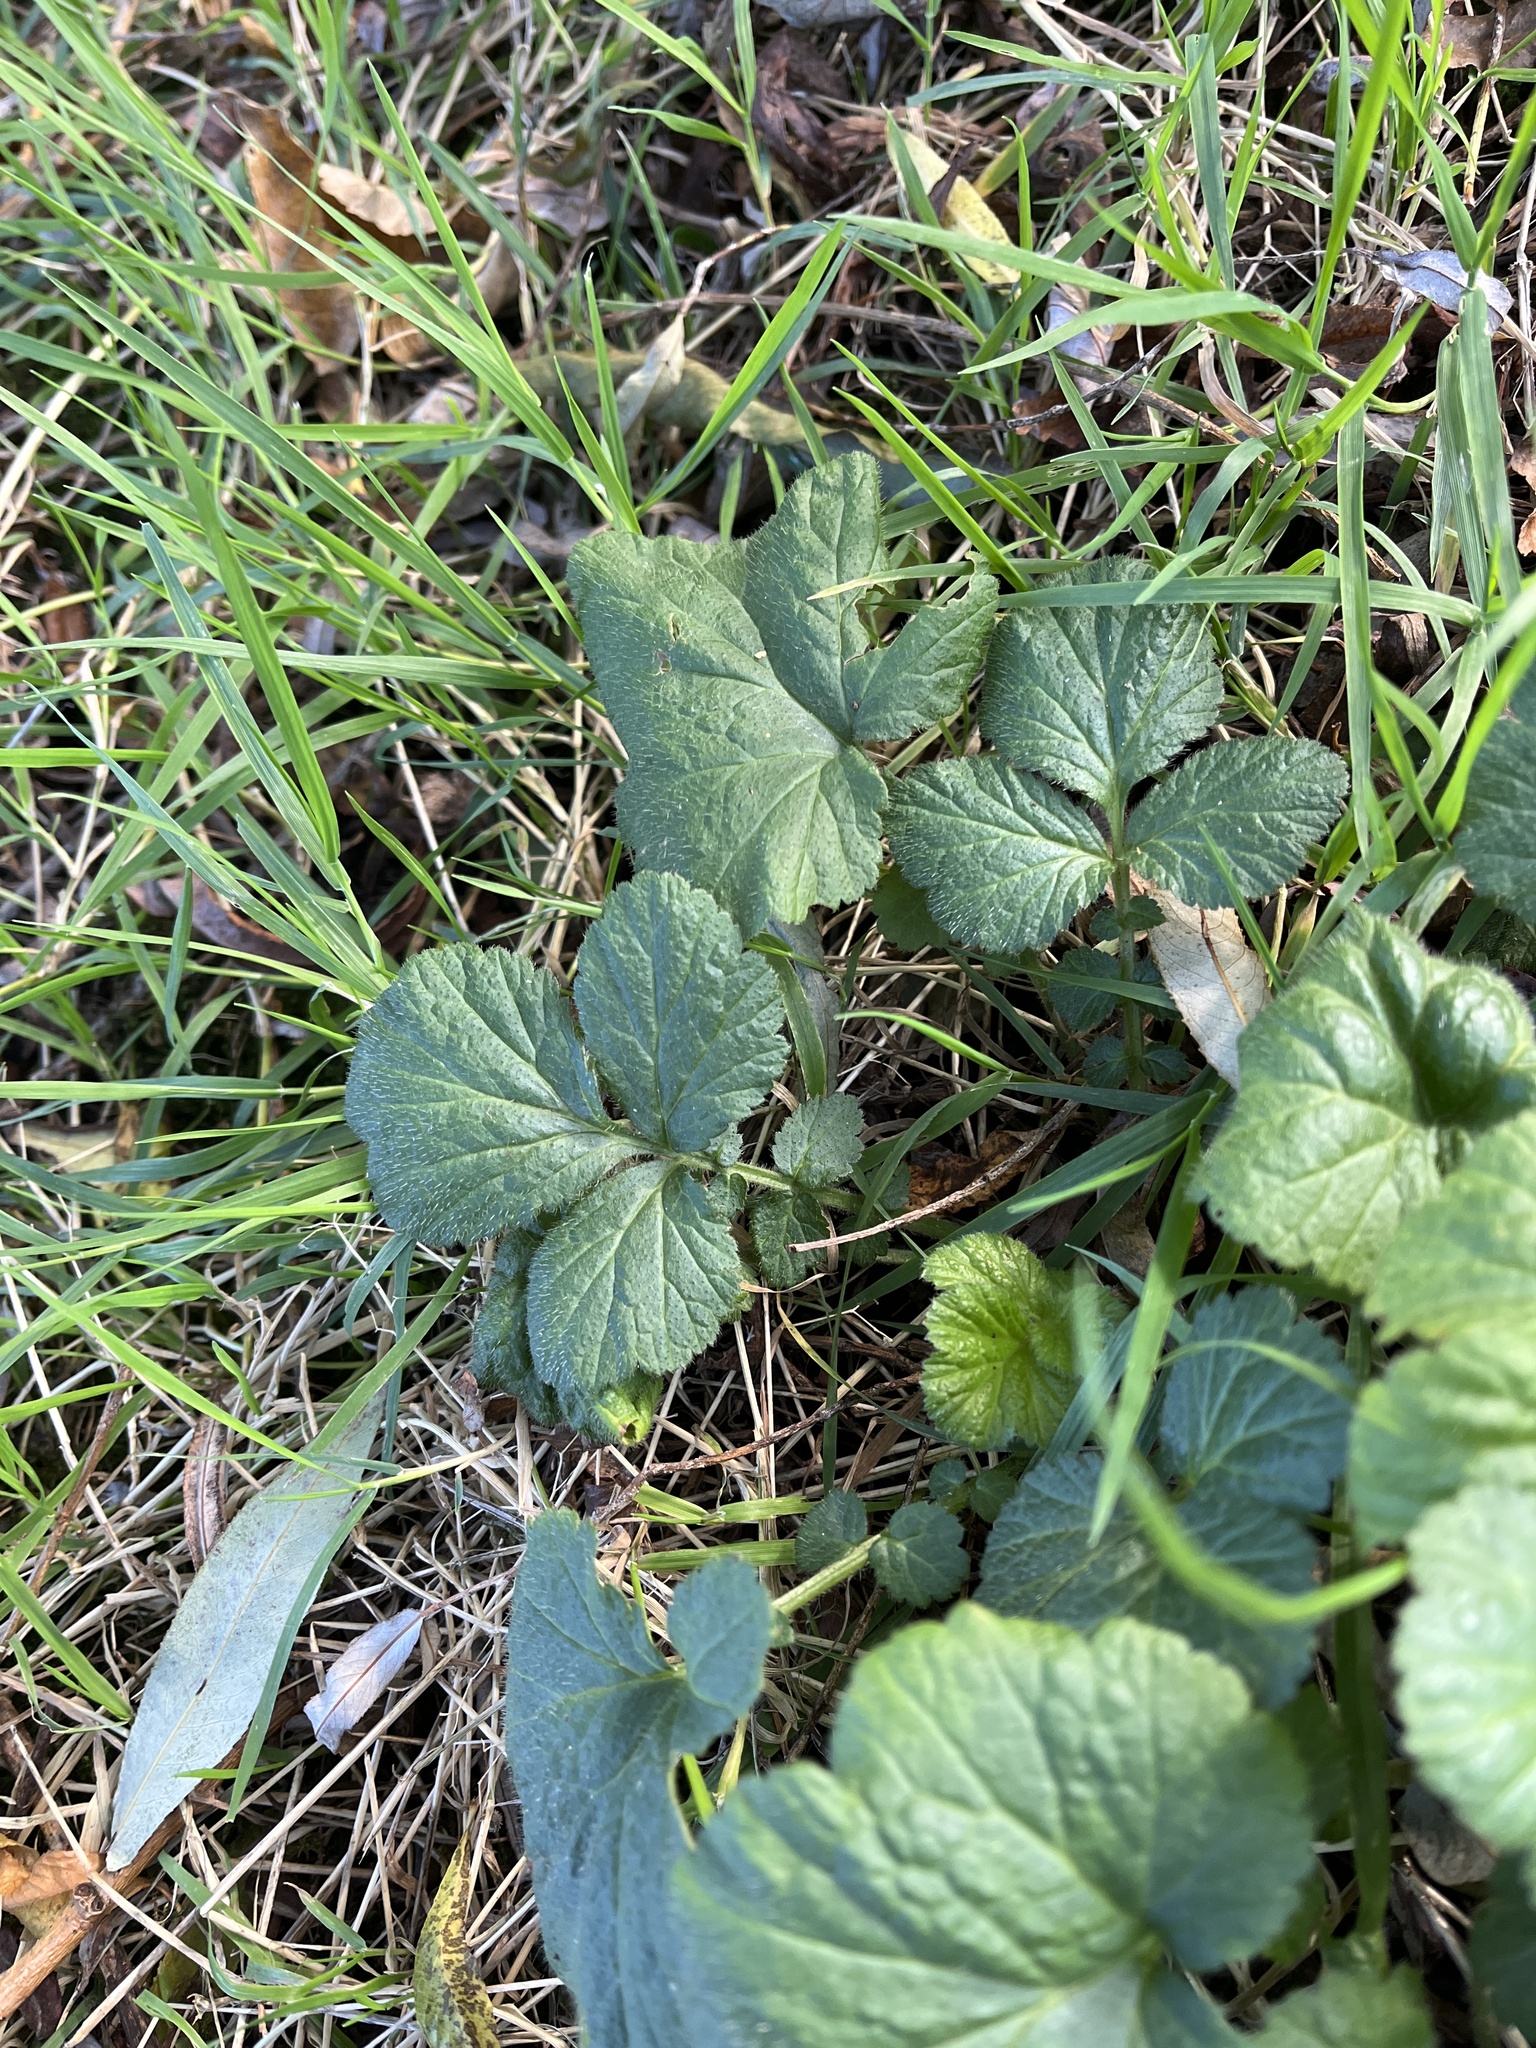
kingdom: Plantae
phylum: Tracheophyta
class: Magnoliopsida
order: Rosales
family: Rosaceae
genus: Geum
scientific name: Geum urbanum
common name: Wood avens
